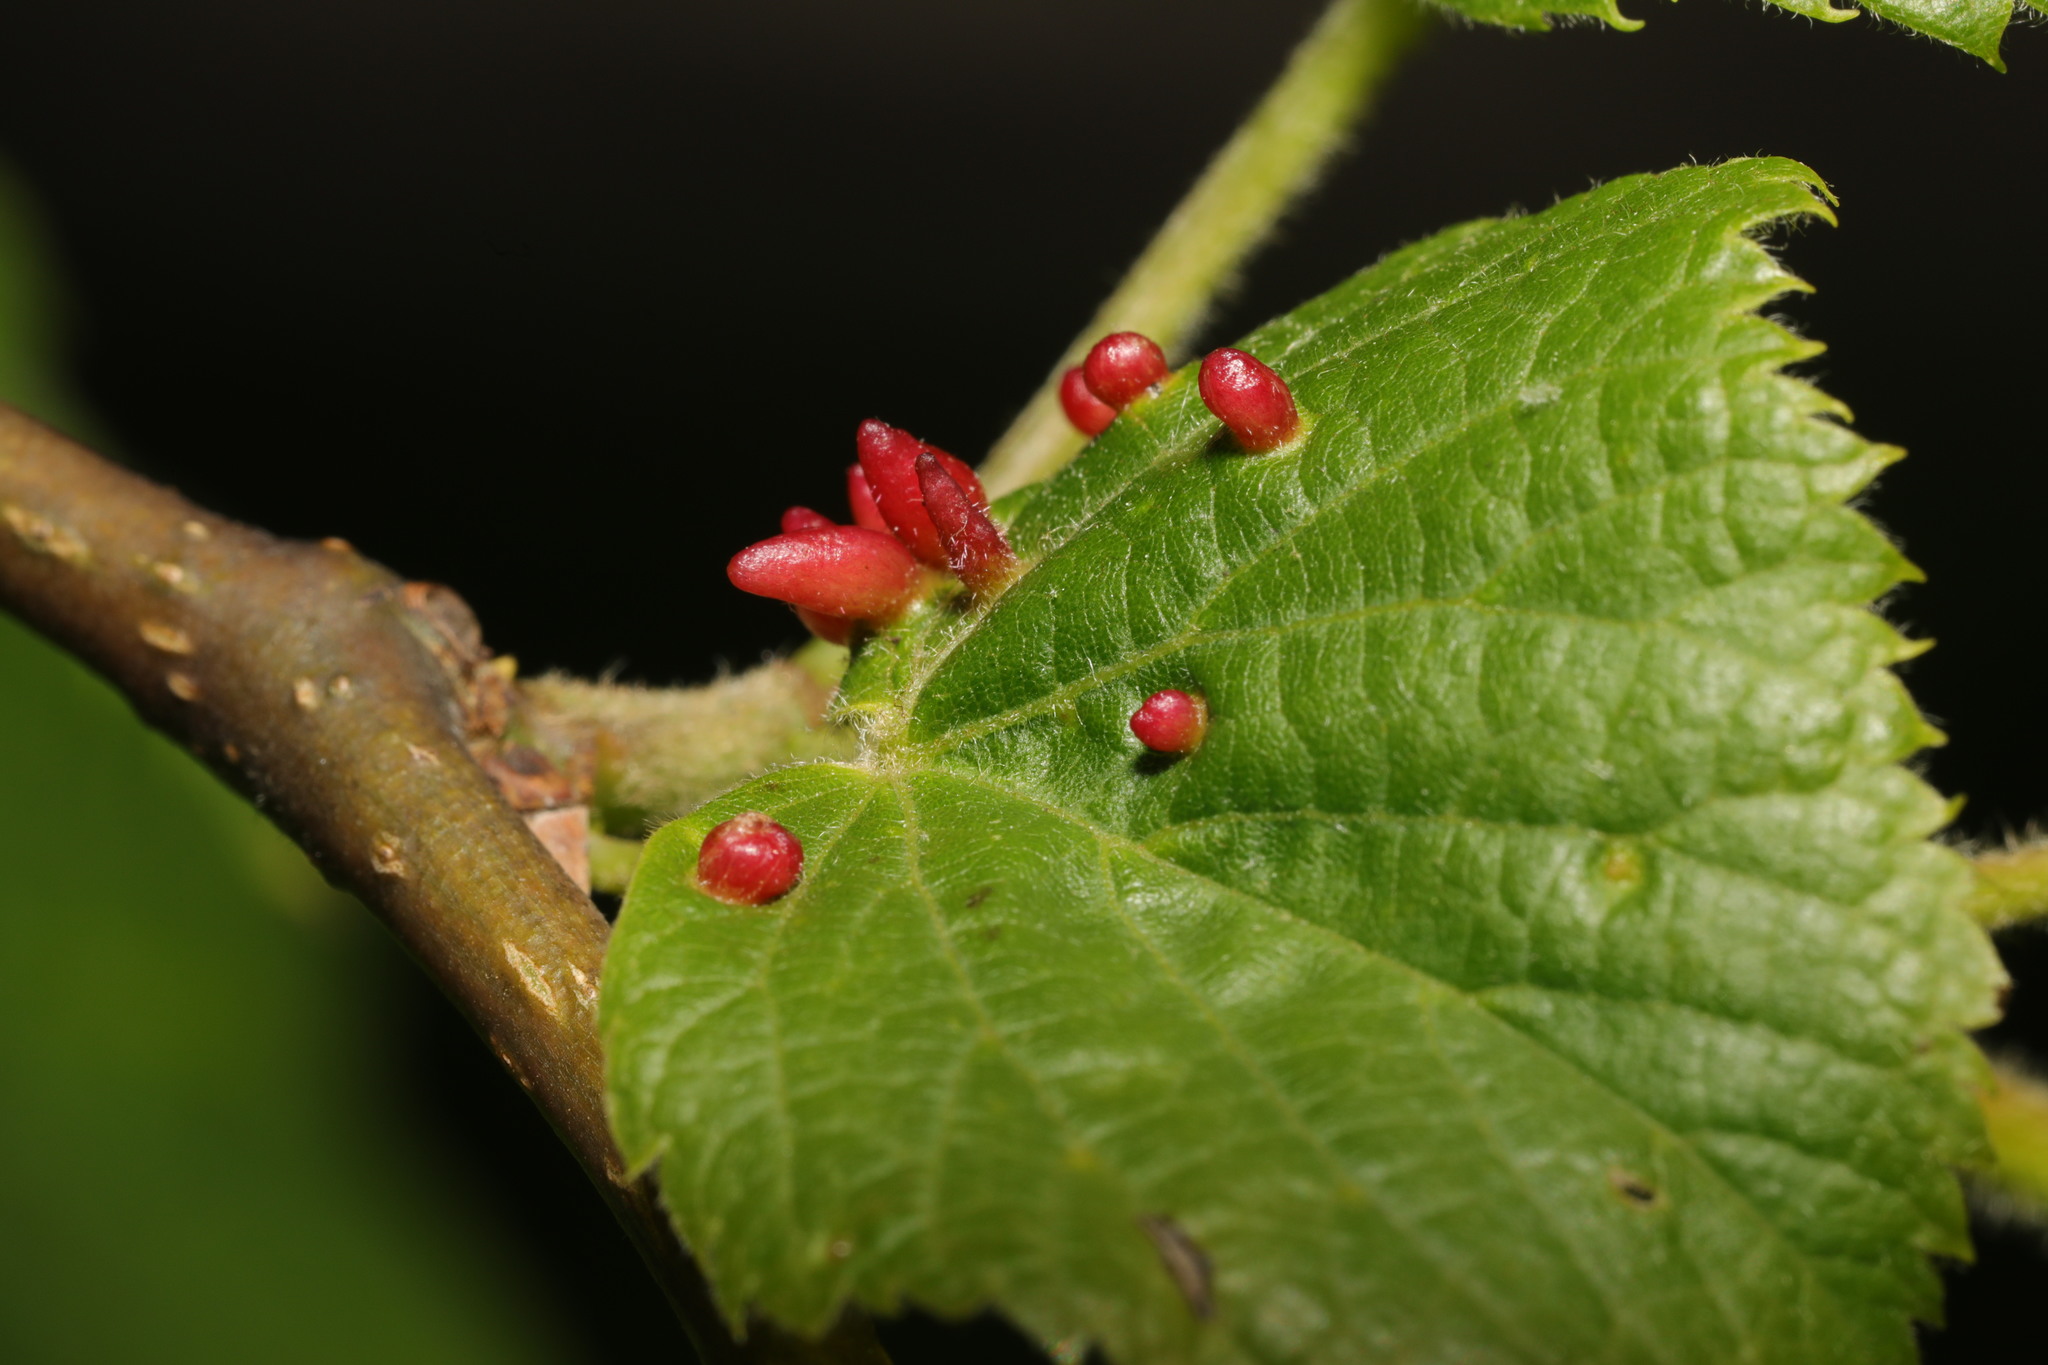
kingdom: Animalia
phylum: Arthropoda
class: Arachnida
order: Trombidiformes
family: Eriophyidae
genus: Eriophyes
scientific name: Eriophyes tiliae
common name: Red nail gall mite
